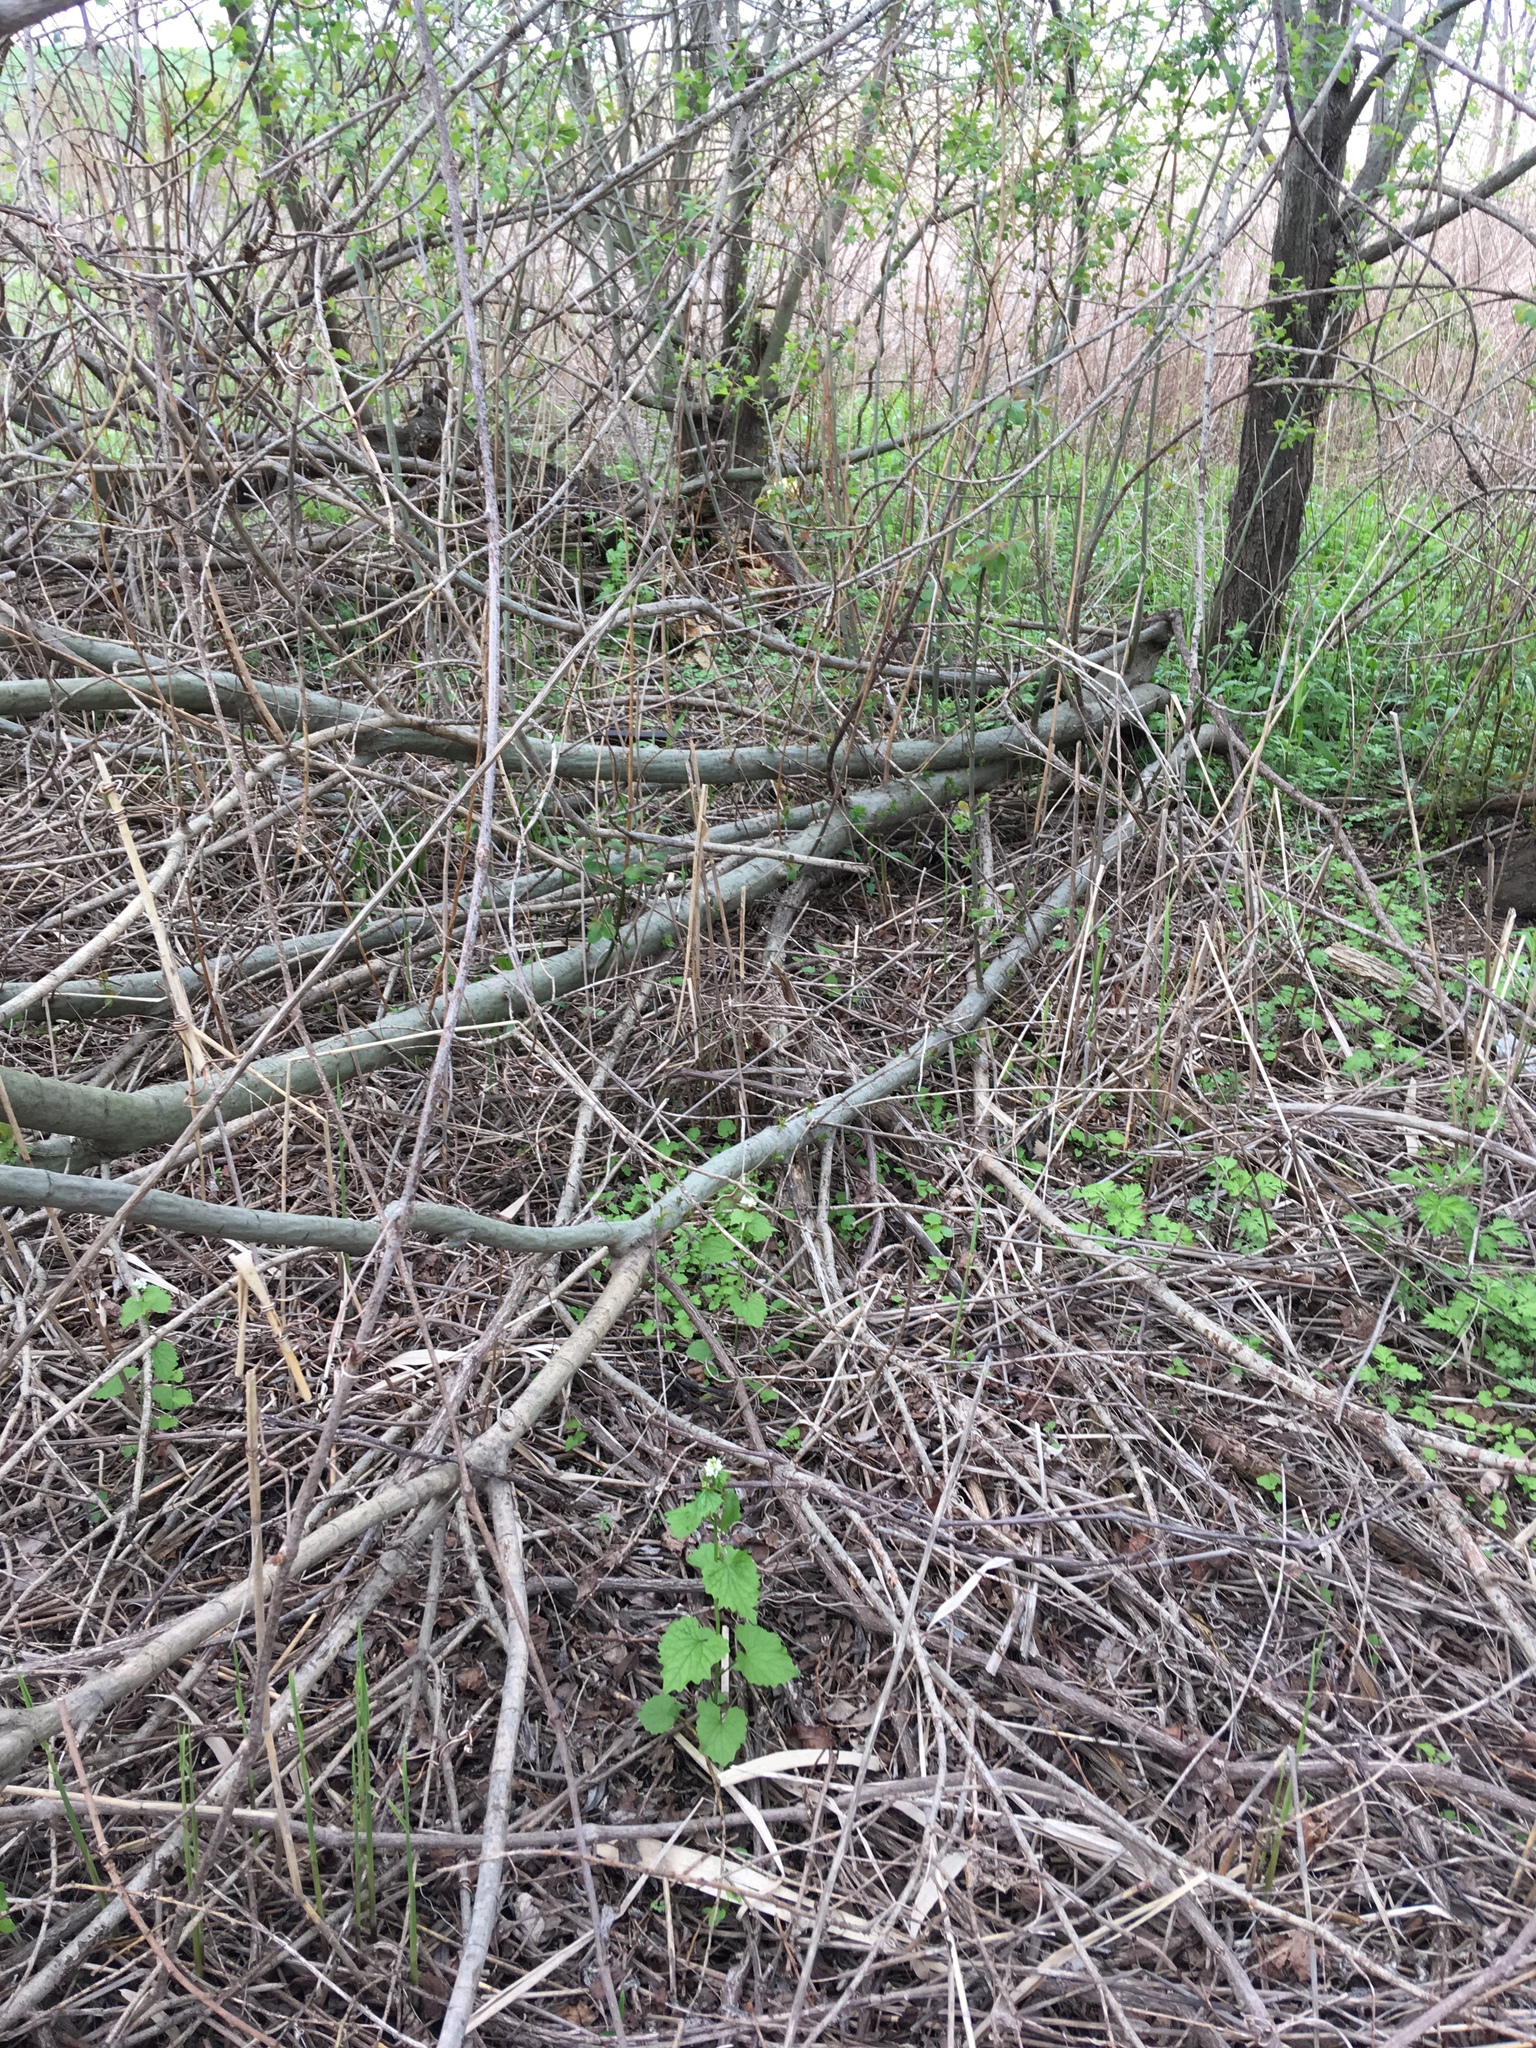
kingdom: Plantae
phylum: Tracheophyta
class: Magnoliopsida
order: Malpighiales
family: Salicaceae
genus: Salix
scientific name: Salix atrocinerea
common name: Rusty willow
